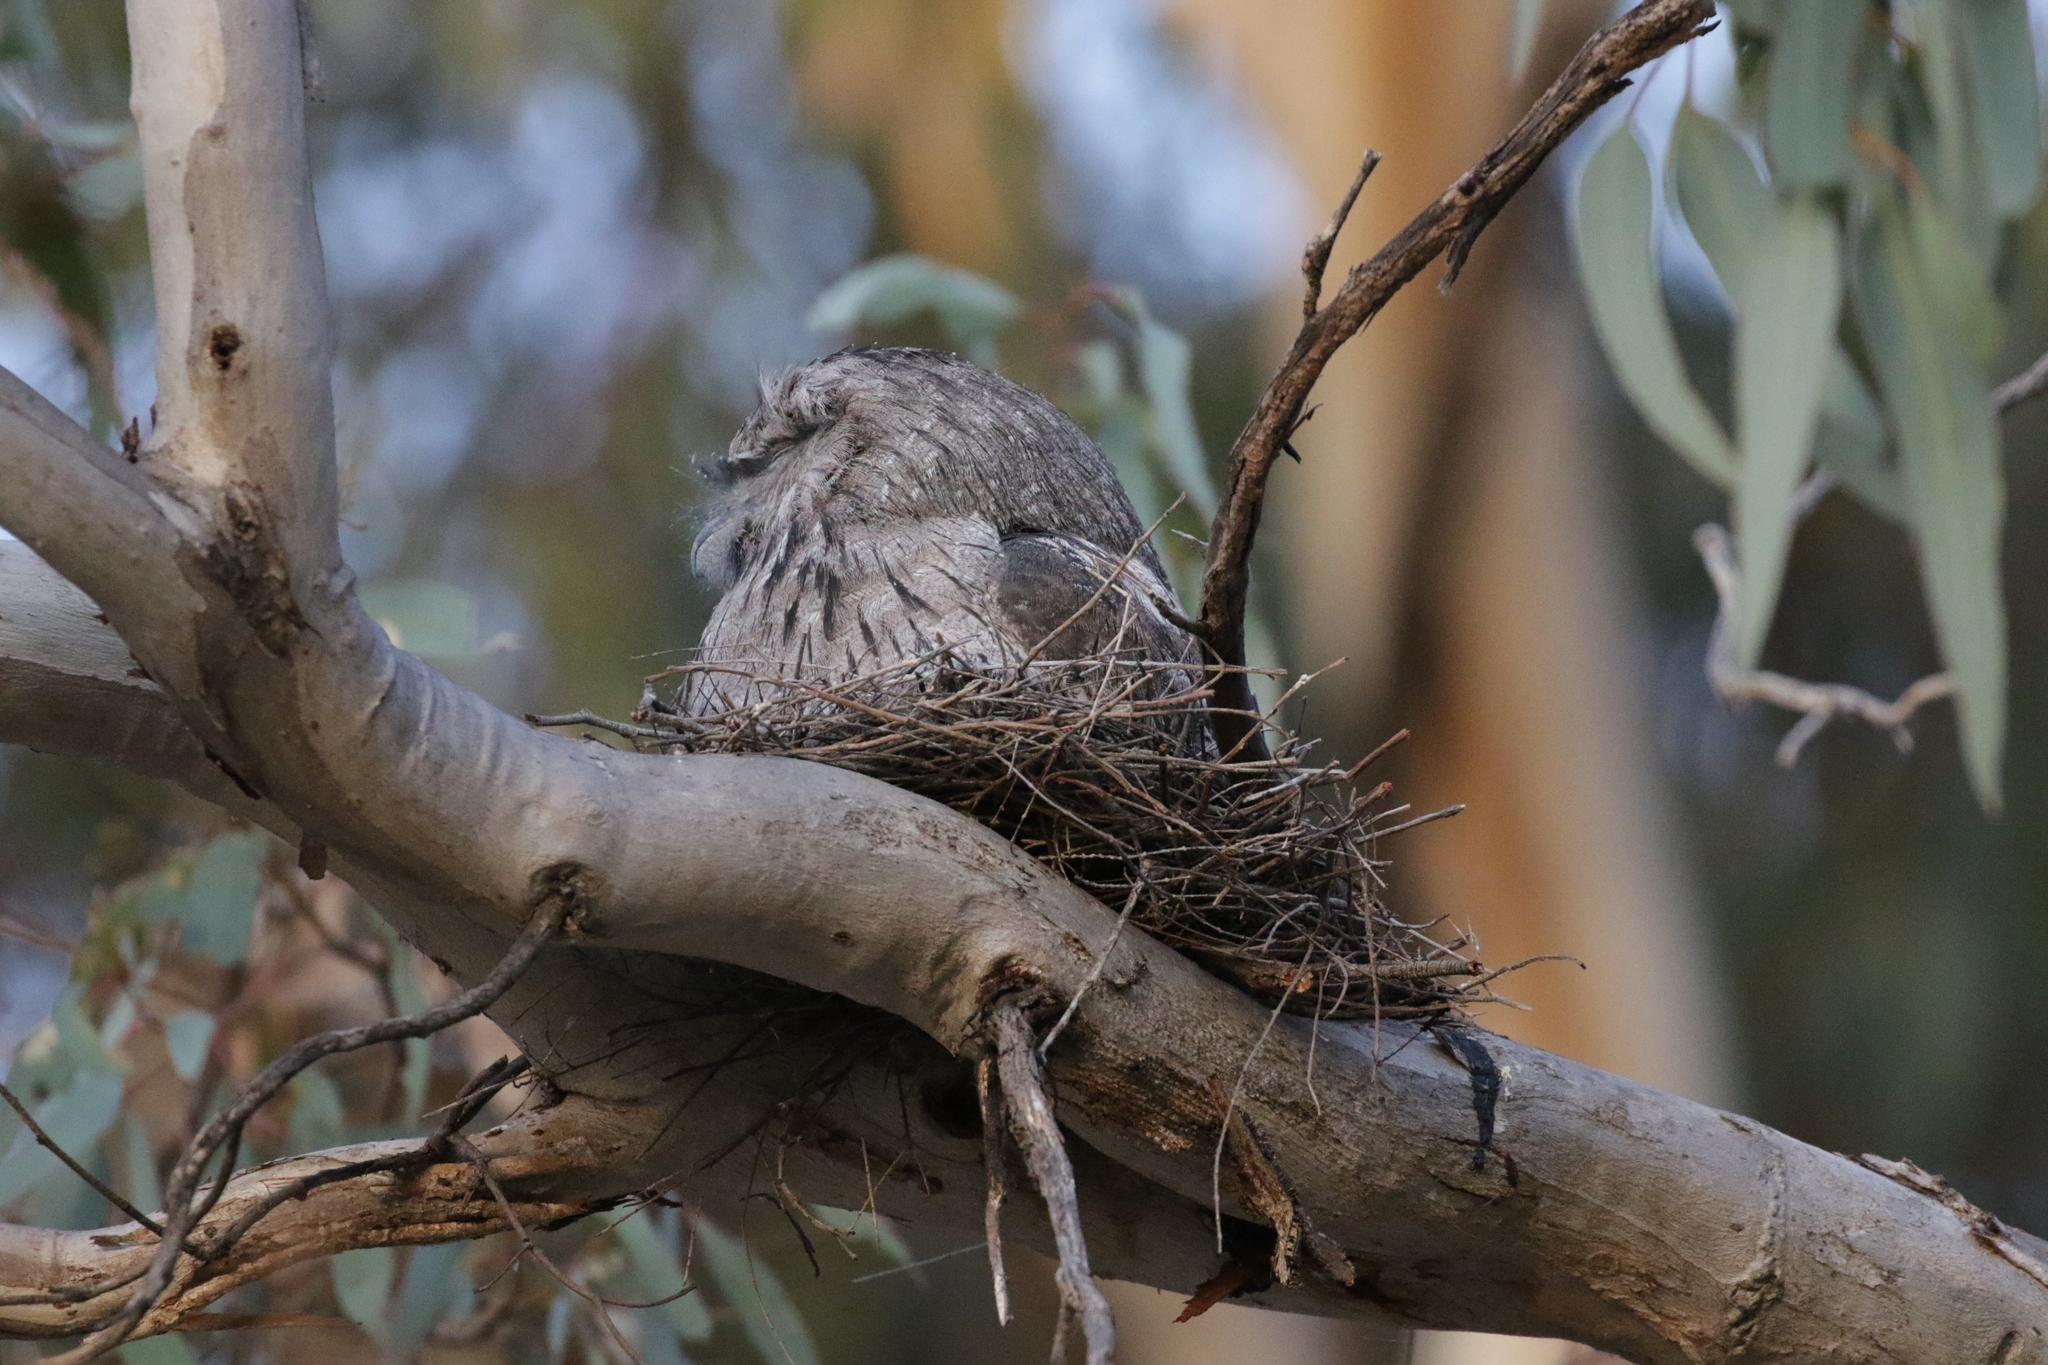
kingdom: Animalia
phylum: Chordata
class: Aves
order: Caprimulgiformes
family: Podargidae
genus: Podargus
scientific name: Podargus strigoides
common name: Tawny frogmouth
